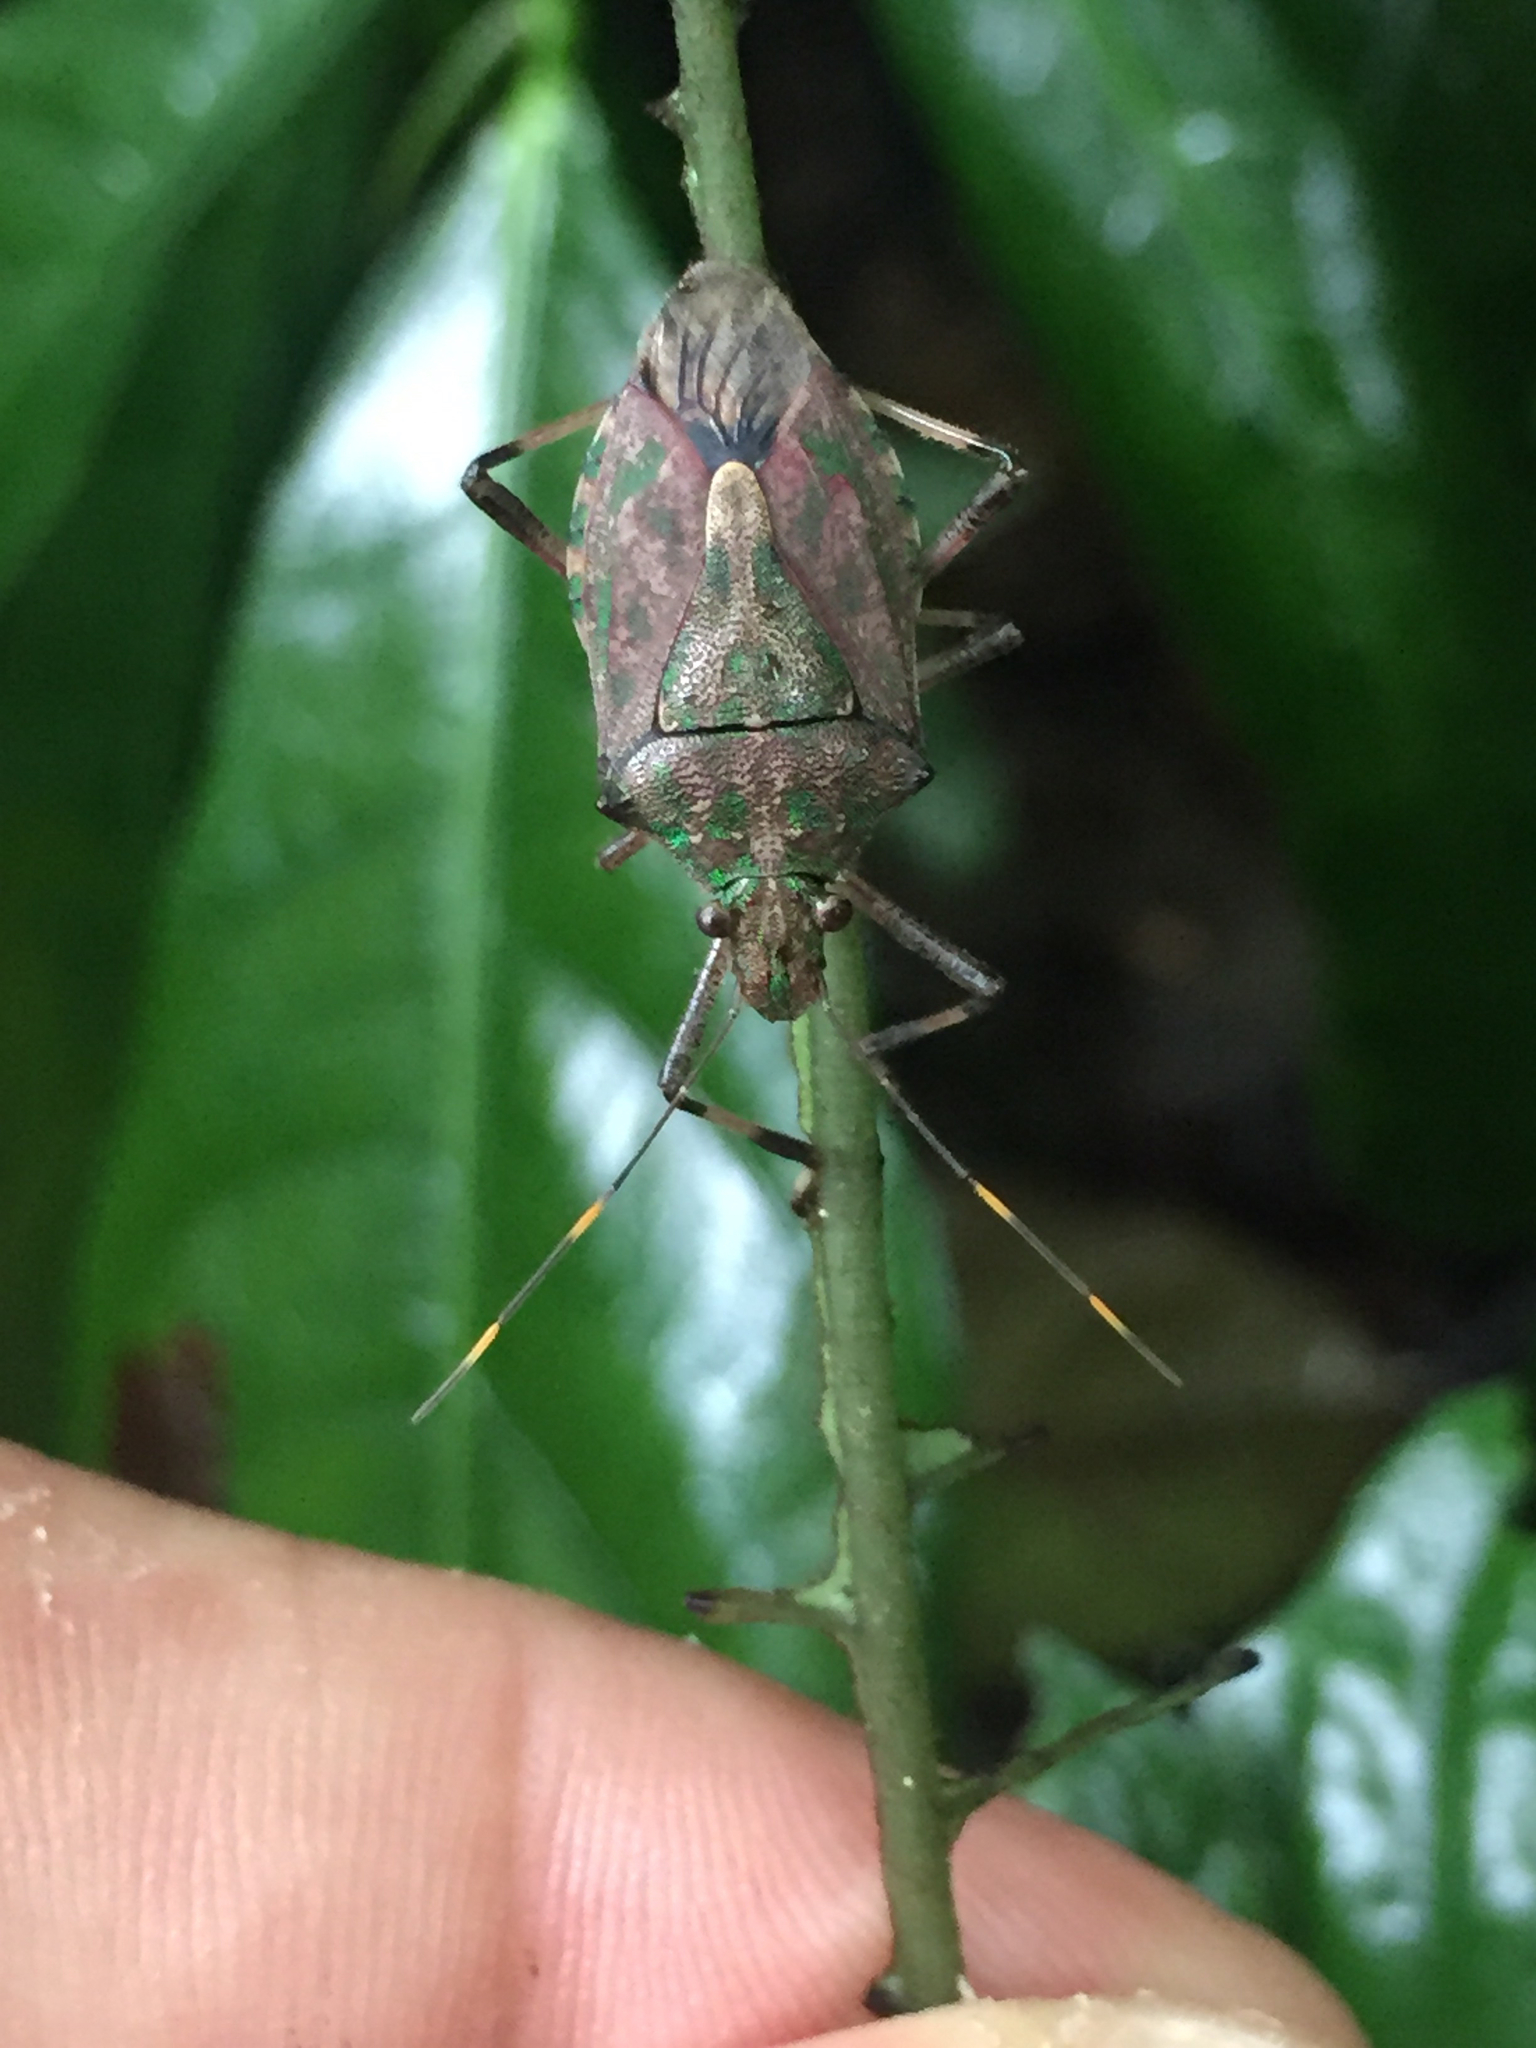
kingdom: Animalia
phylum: Arthropoda
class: Insecta
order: Hemiptera
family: Pentatomidae
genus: Tachengia
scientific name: Tachengia
